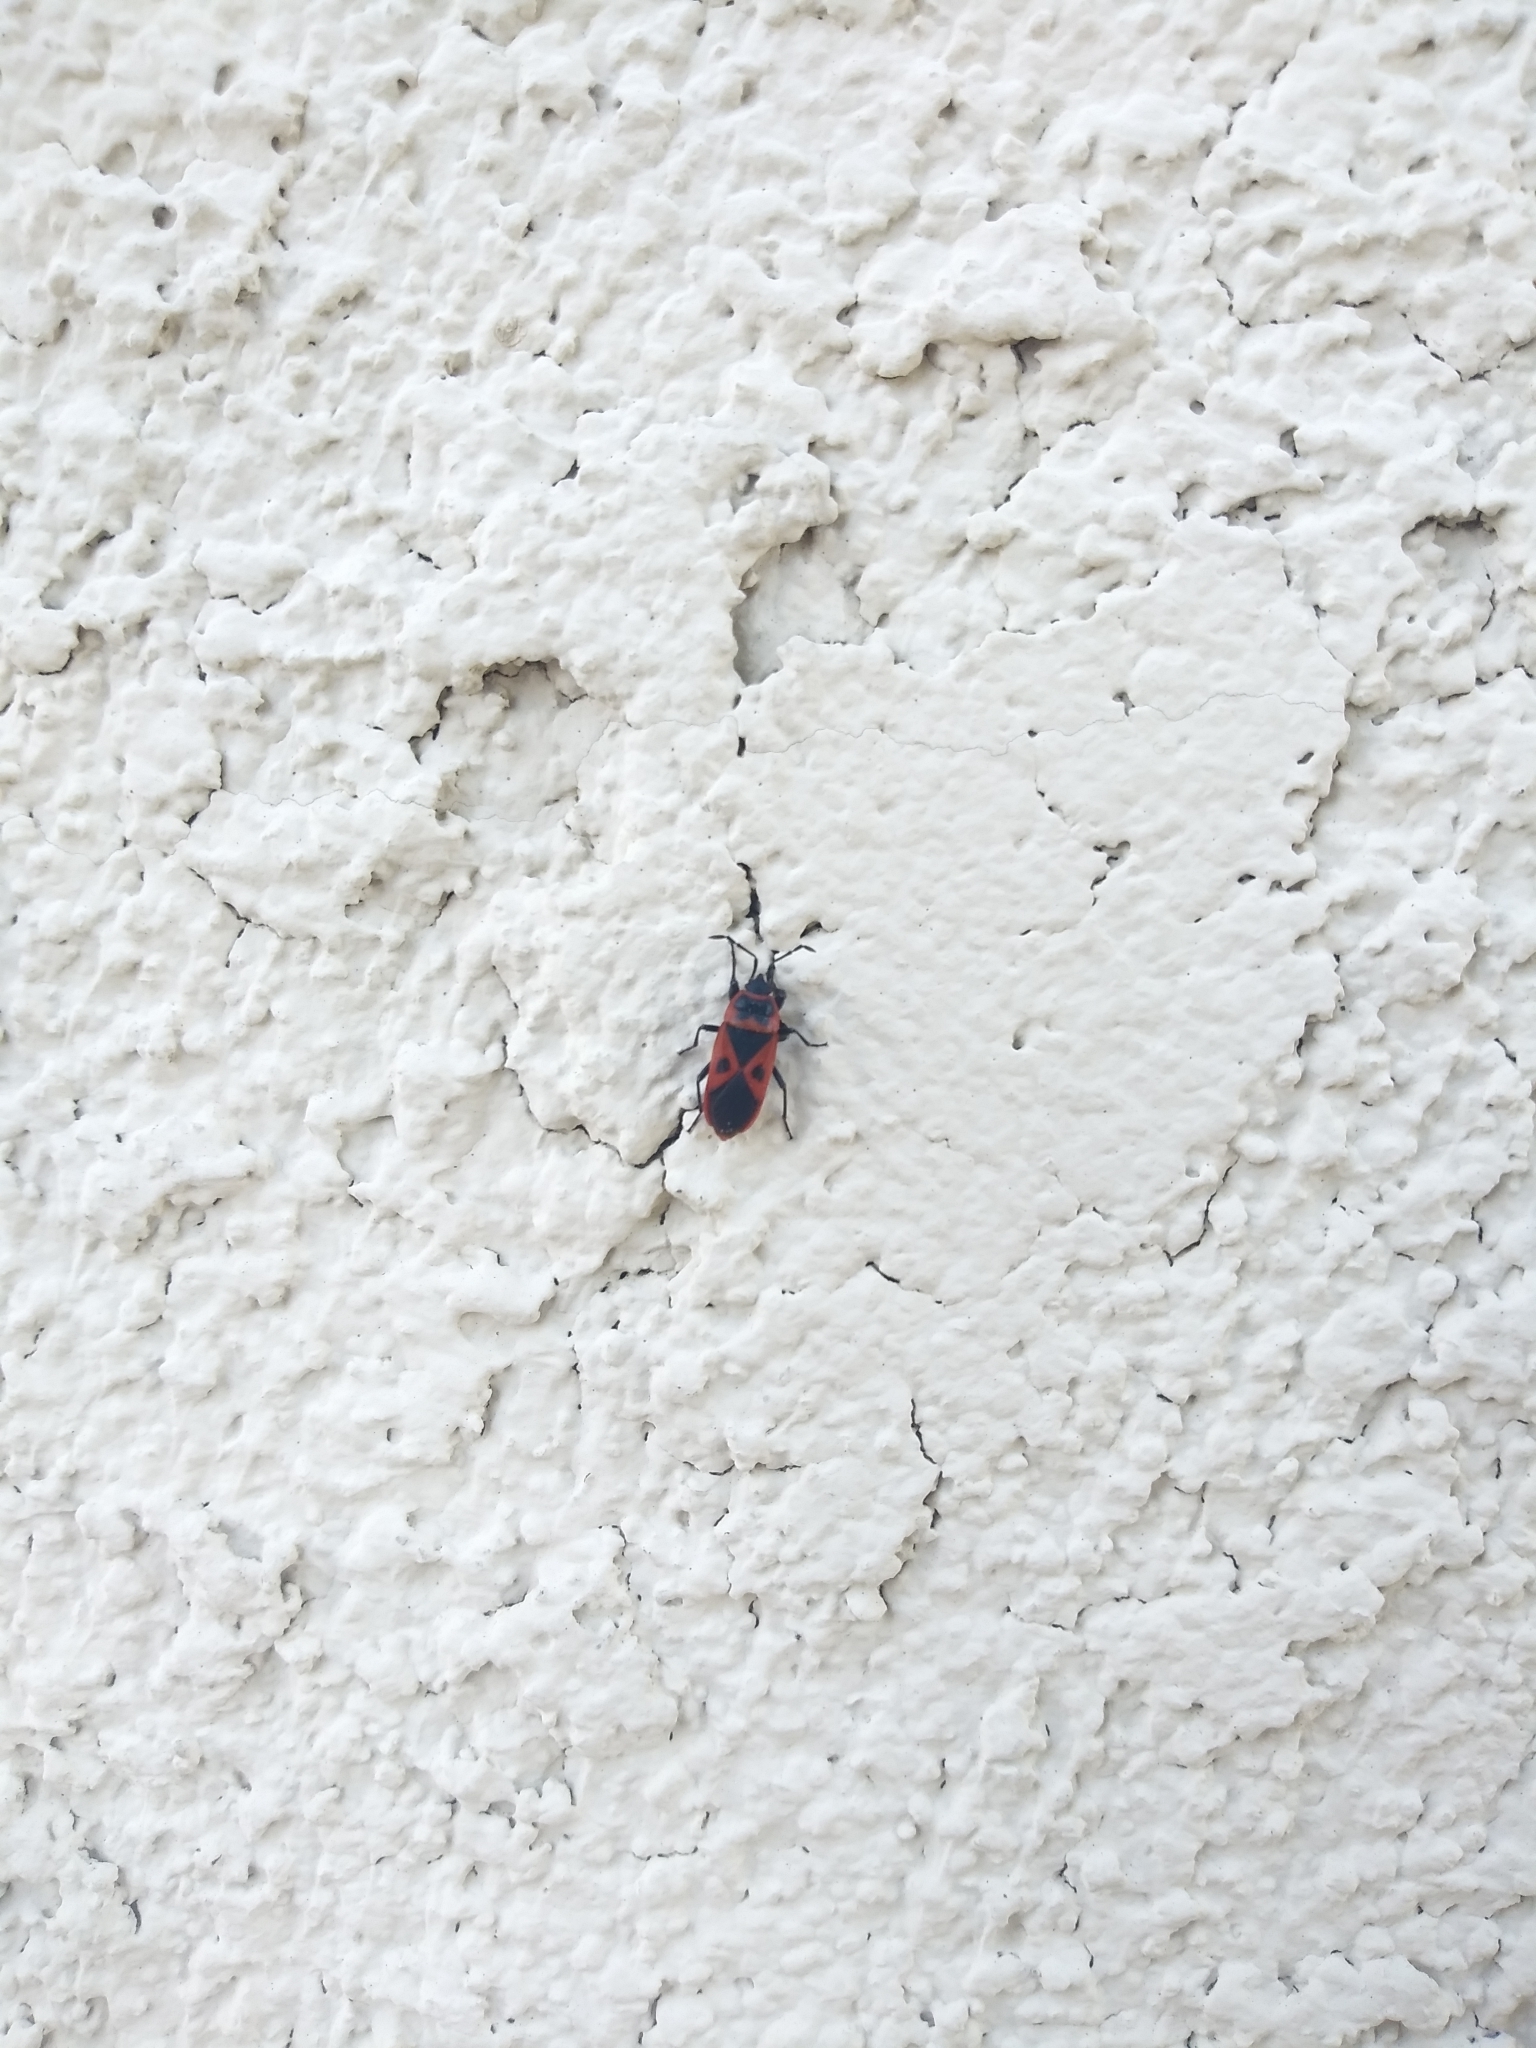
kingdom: Animalia
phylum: Arthropoda
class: Insecta
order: Hemiptera
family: Pyrrhocoridae
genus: Scantius
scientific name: Scantius aegyptius
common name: Red bug
